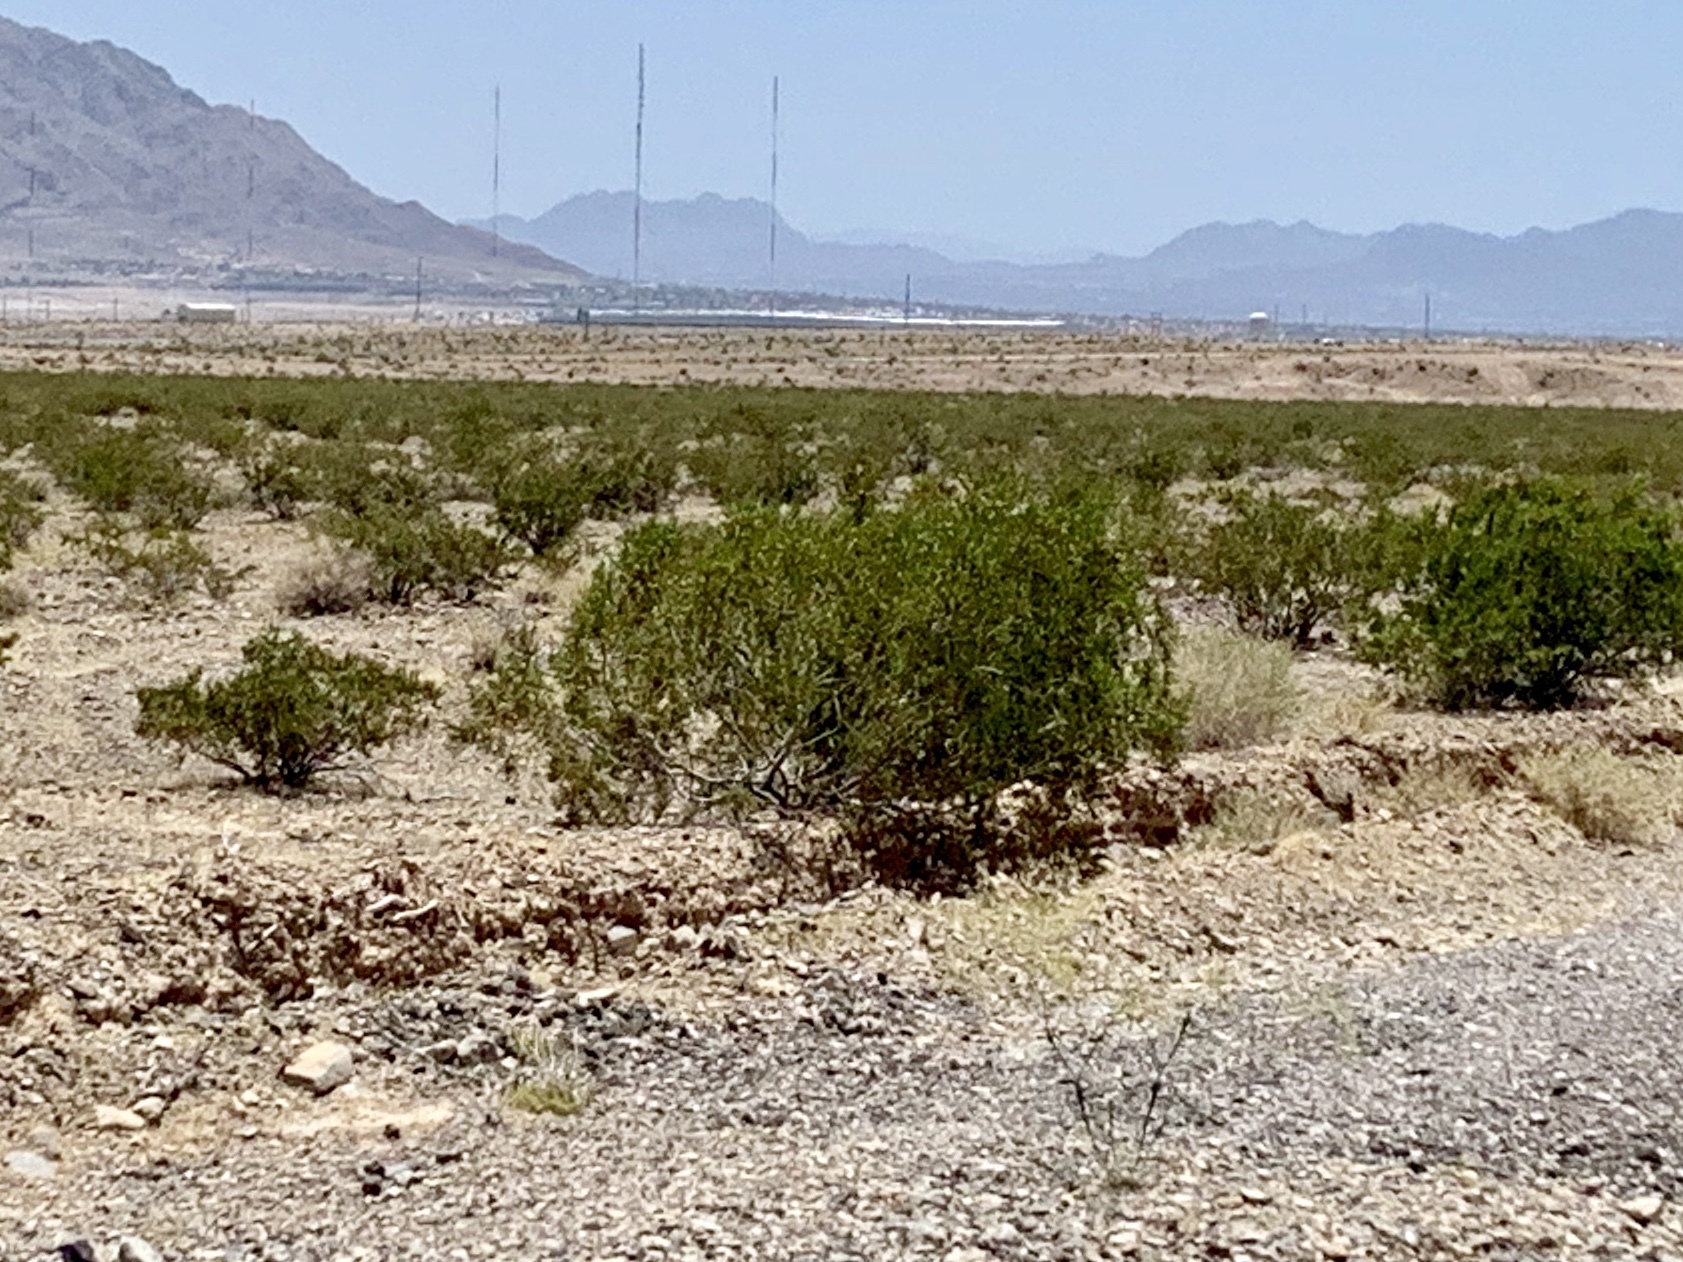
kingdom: Plantae
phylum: Tracheophyta
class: Magnoliopsida
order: Zygophyllales
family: Zygophyllaceae
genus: Larrea
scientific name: Larrea tridentata
